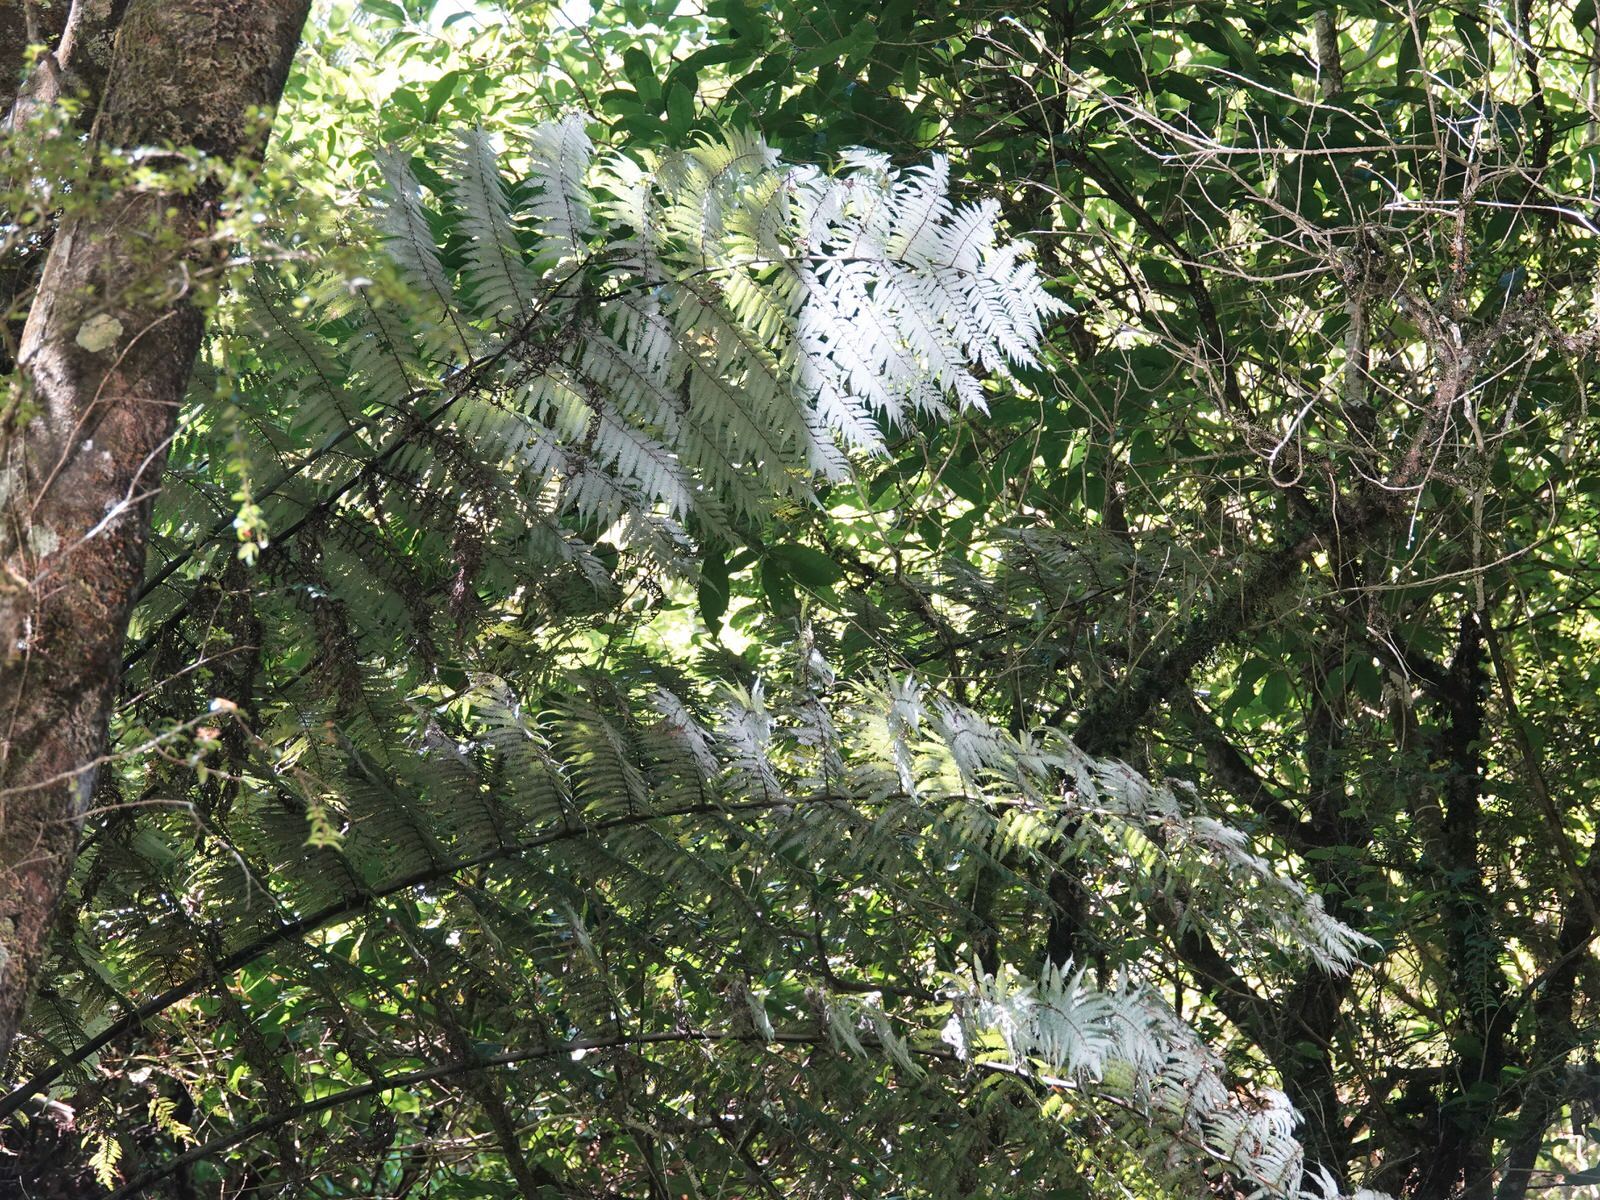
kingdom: Plantae
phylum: Tracheophyta
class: Polypodiopsida
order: Cyatheales
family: Cyatheaceae
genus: Alsophila
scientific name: Alsophila dealbata
